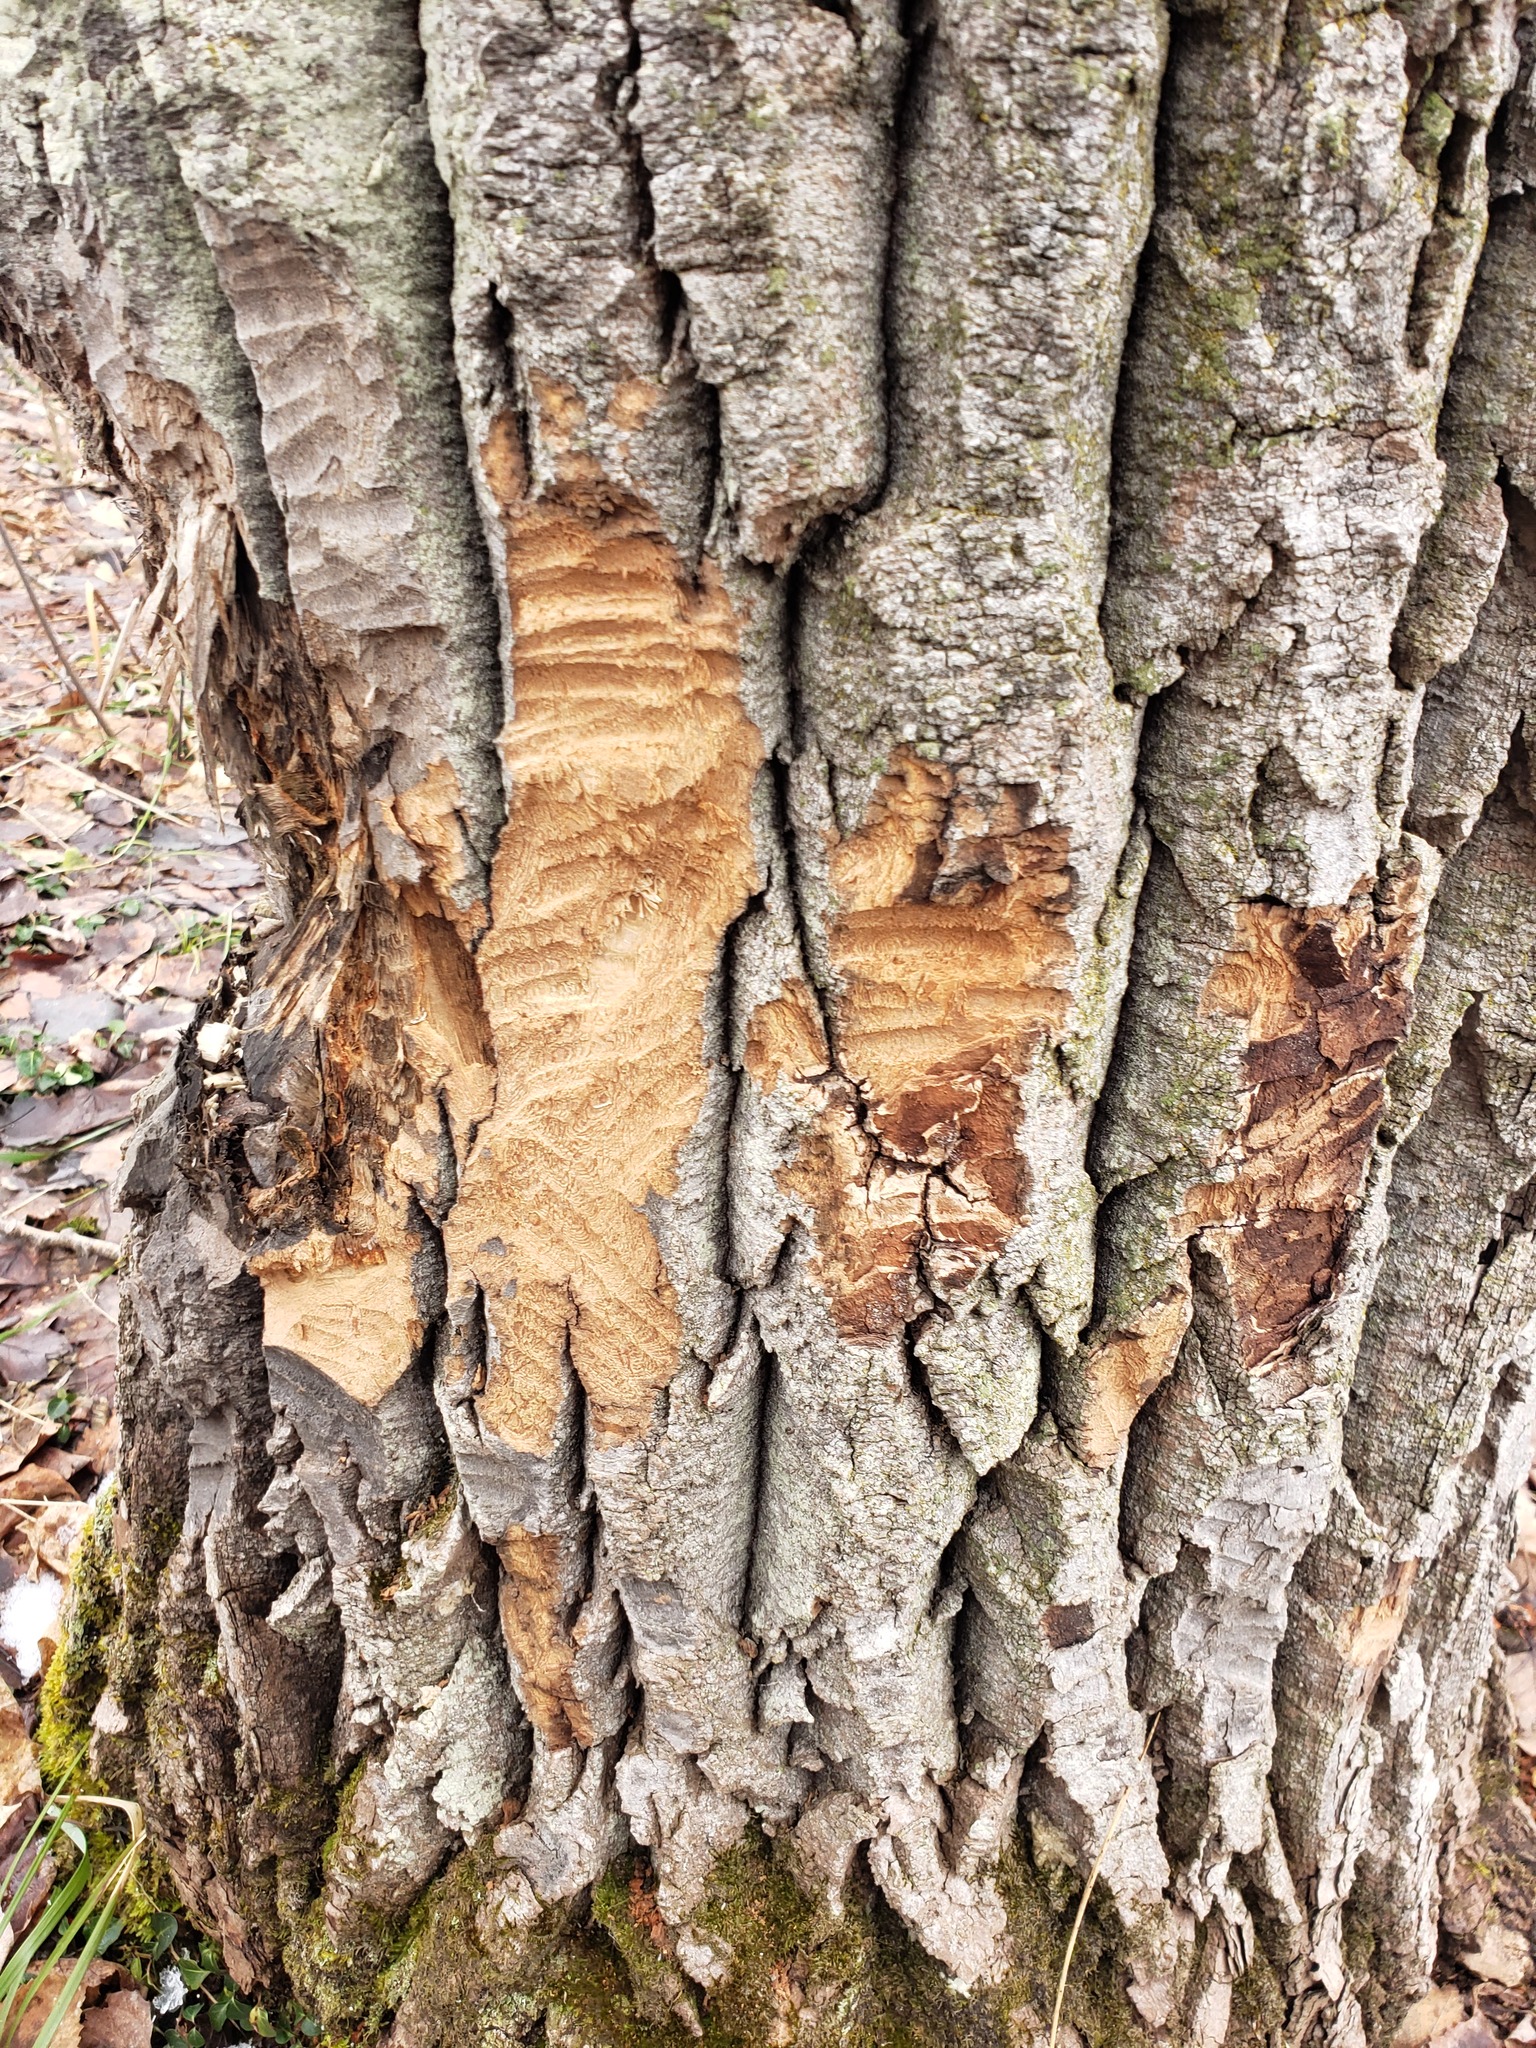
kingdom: Animalia
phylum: Chordata
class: Mammalia
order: Rodentia
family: Castoridae
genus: Castor
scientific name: Castor canadensis
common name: American beaver
